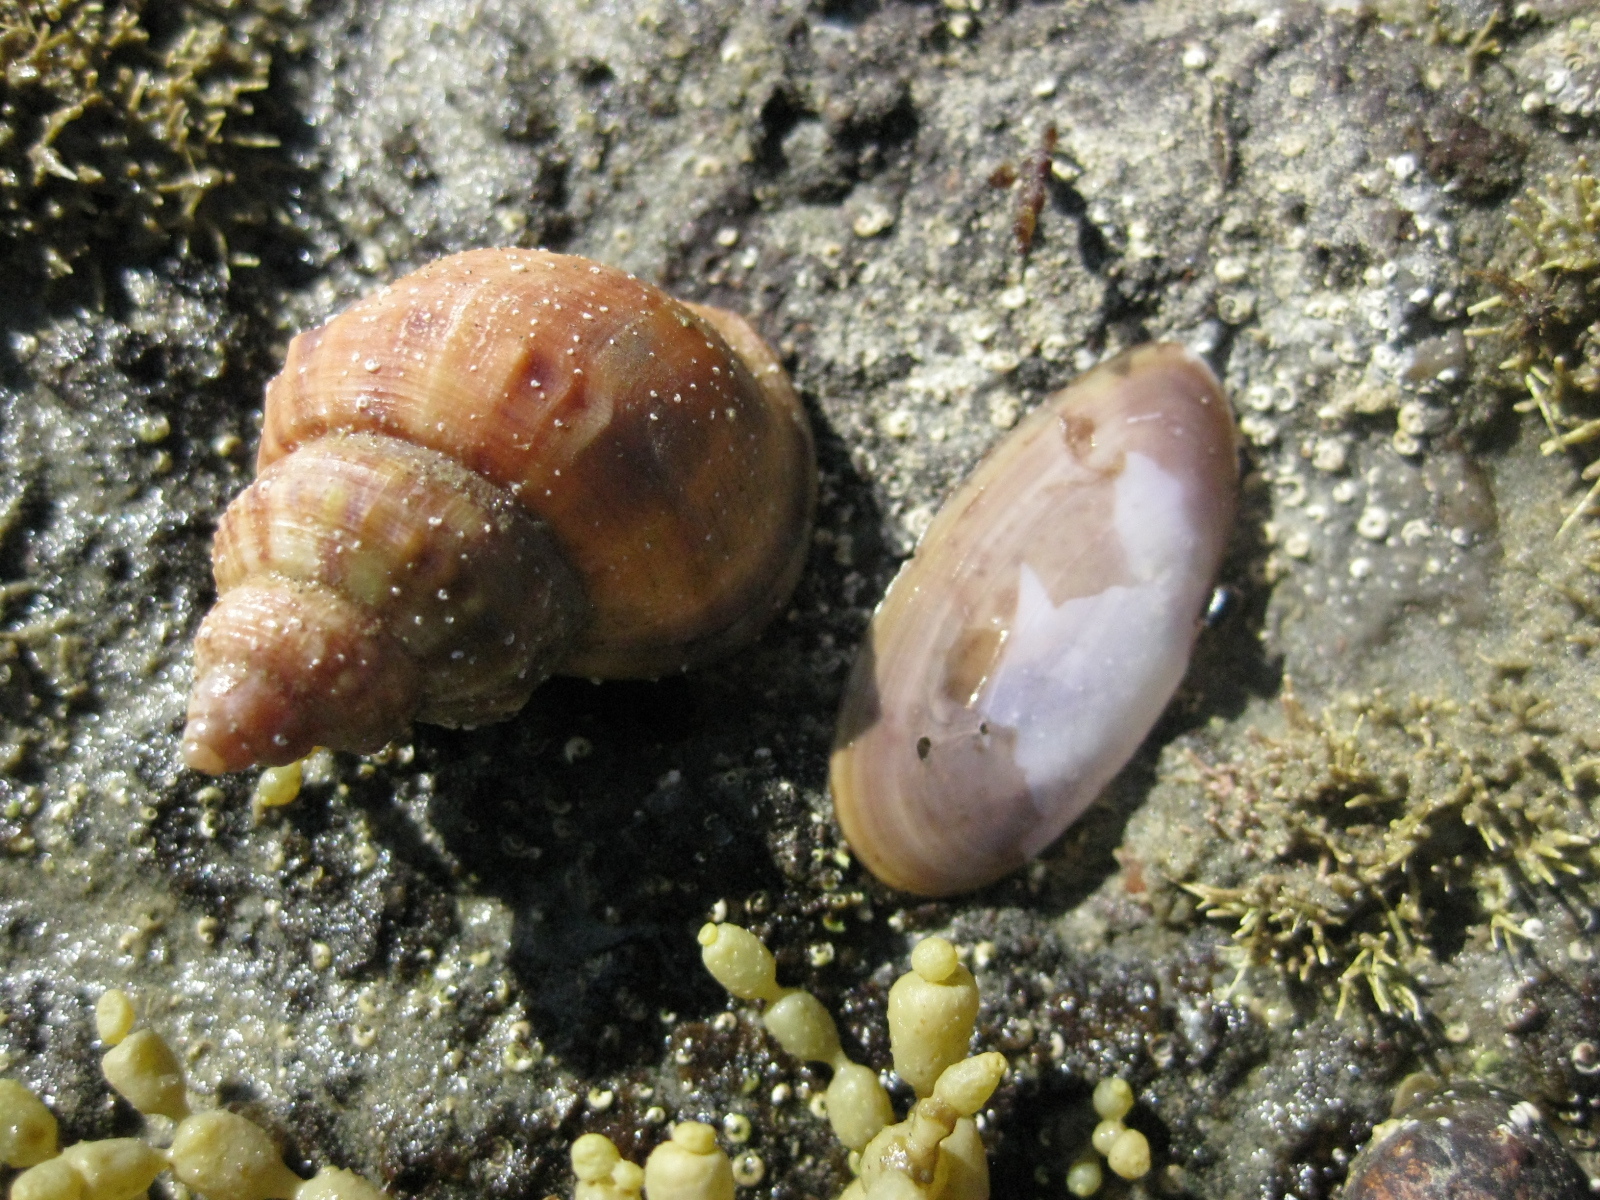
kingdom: Animalia
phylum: Mollusca
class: Bivalvia
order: Cardiida
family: Psammobiidae
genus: Hiatula
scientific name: Hiatula nitida
